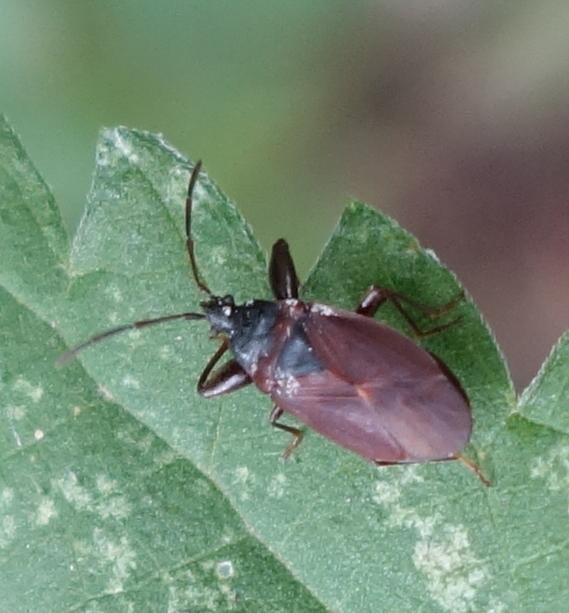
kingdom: Animalia
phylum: Arthropoda
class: Insecta
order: Hemiptera
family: Rhyparochromidae
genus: Gastrodes
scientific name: Gastrodes grossipes
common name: Pine cone bug
